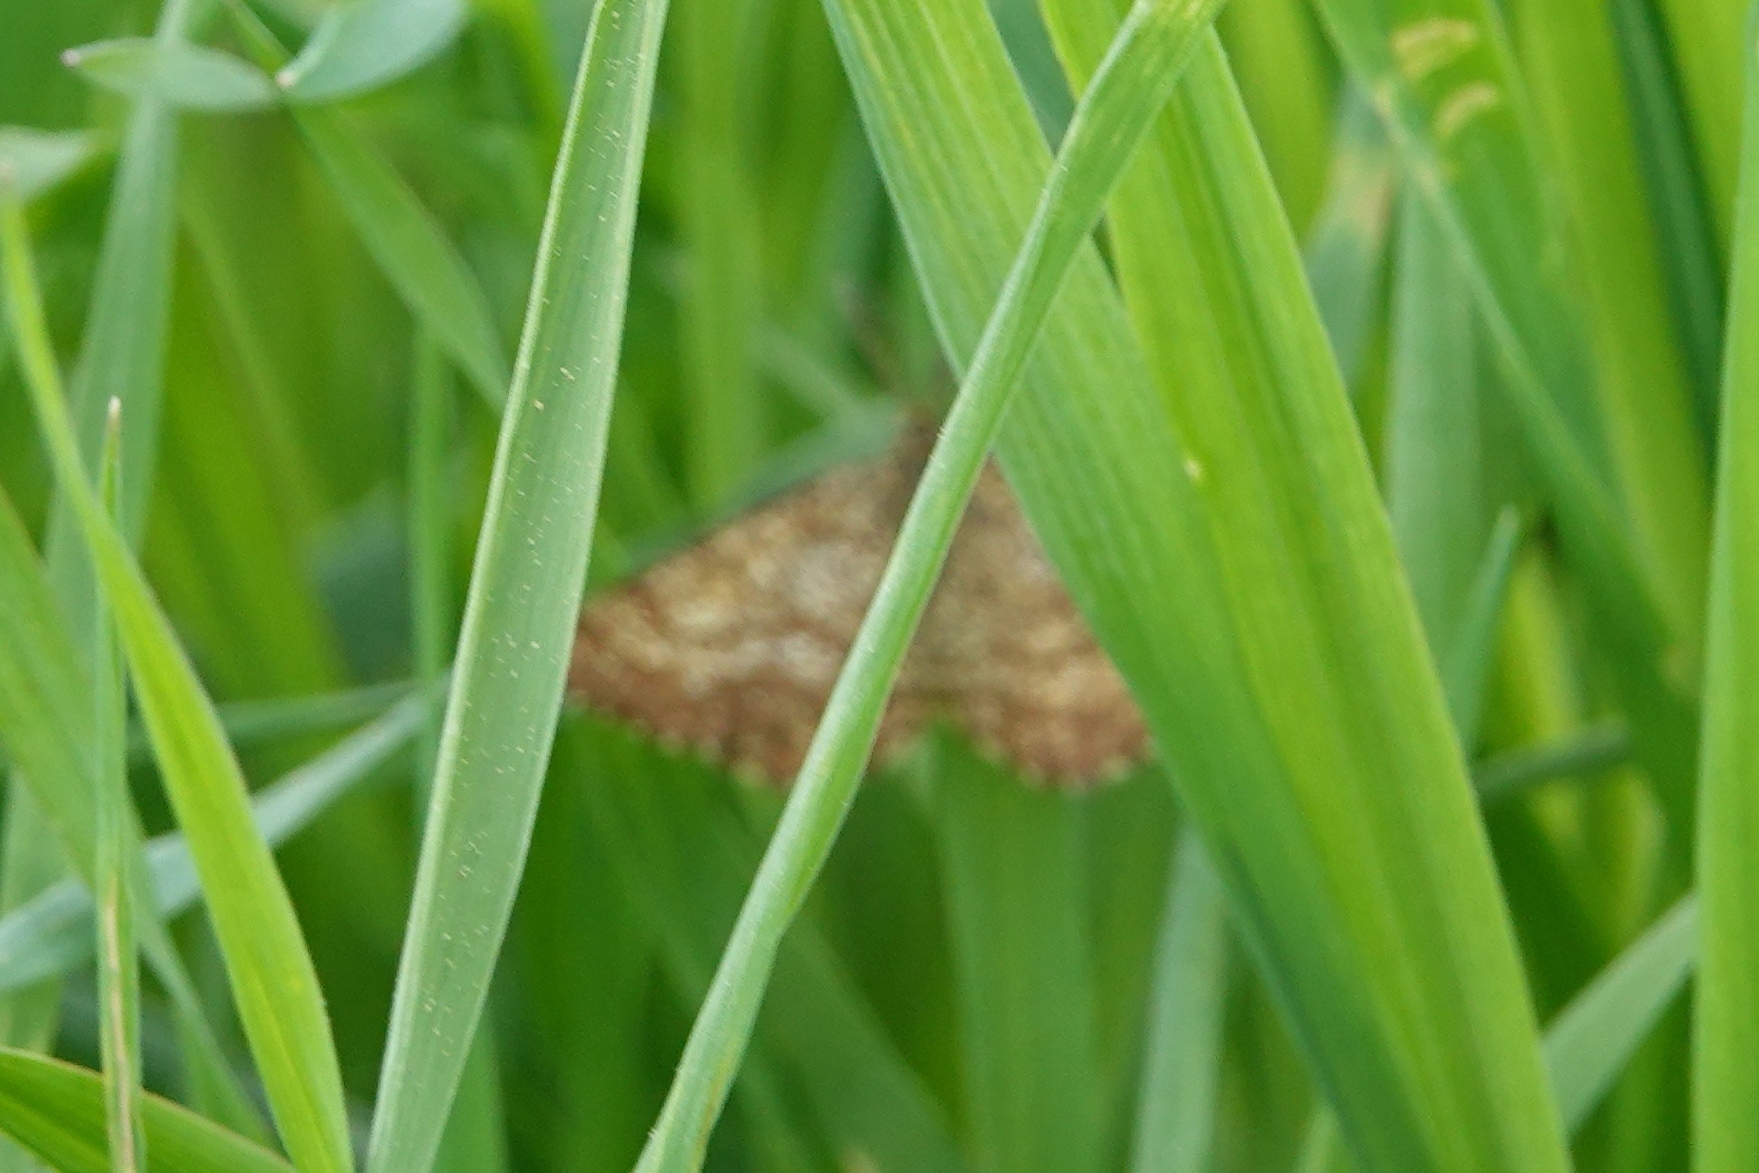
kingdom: Animalia
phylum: Arthropoda
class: Insecta
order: Lepidoptera
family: Geometridae
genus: Ematurga
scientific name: Ematurga atomaria
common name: Common heath
